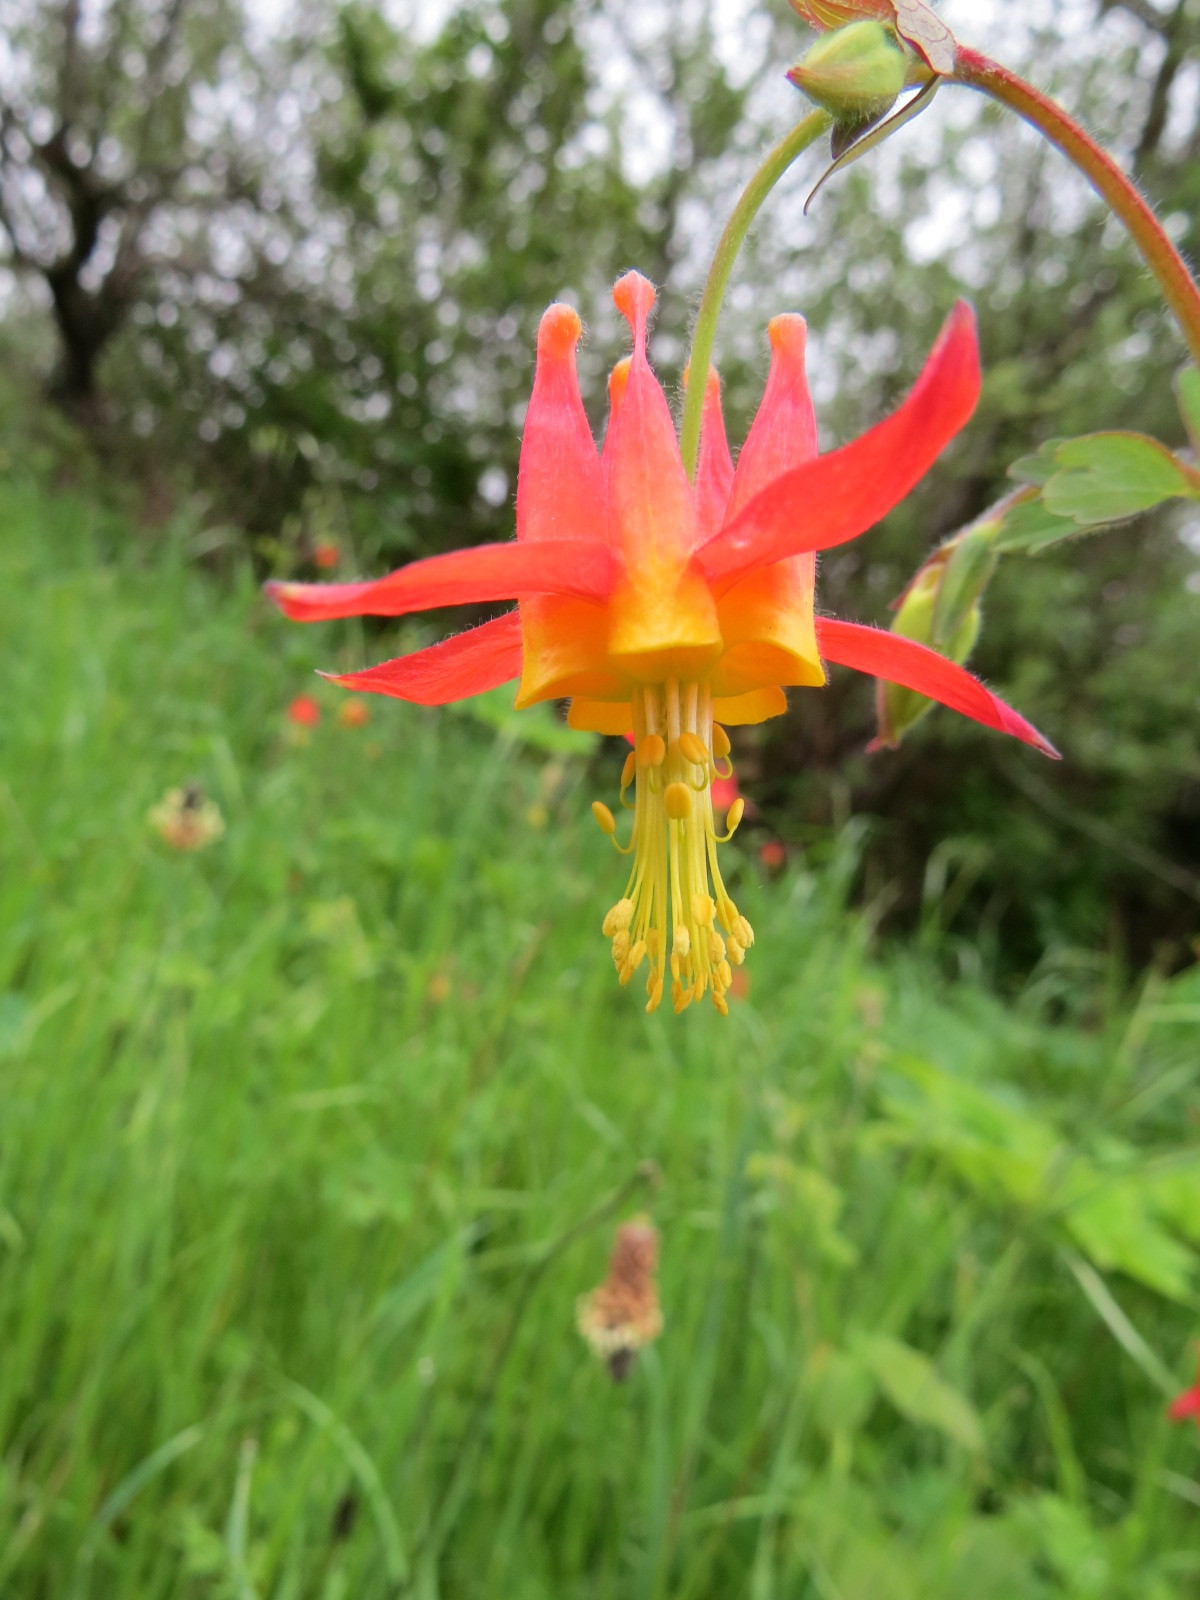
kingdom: Plantae
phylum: Tracheophyta
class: Magnoliopsida
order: Ranunculales
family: Ranunculaceae
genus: Aquilegia
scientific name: Aquilegia formosa
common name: Sitka columbine
